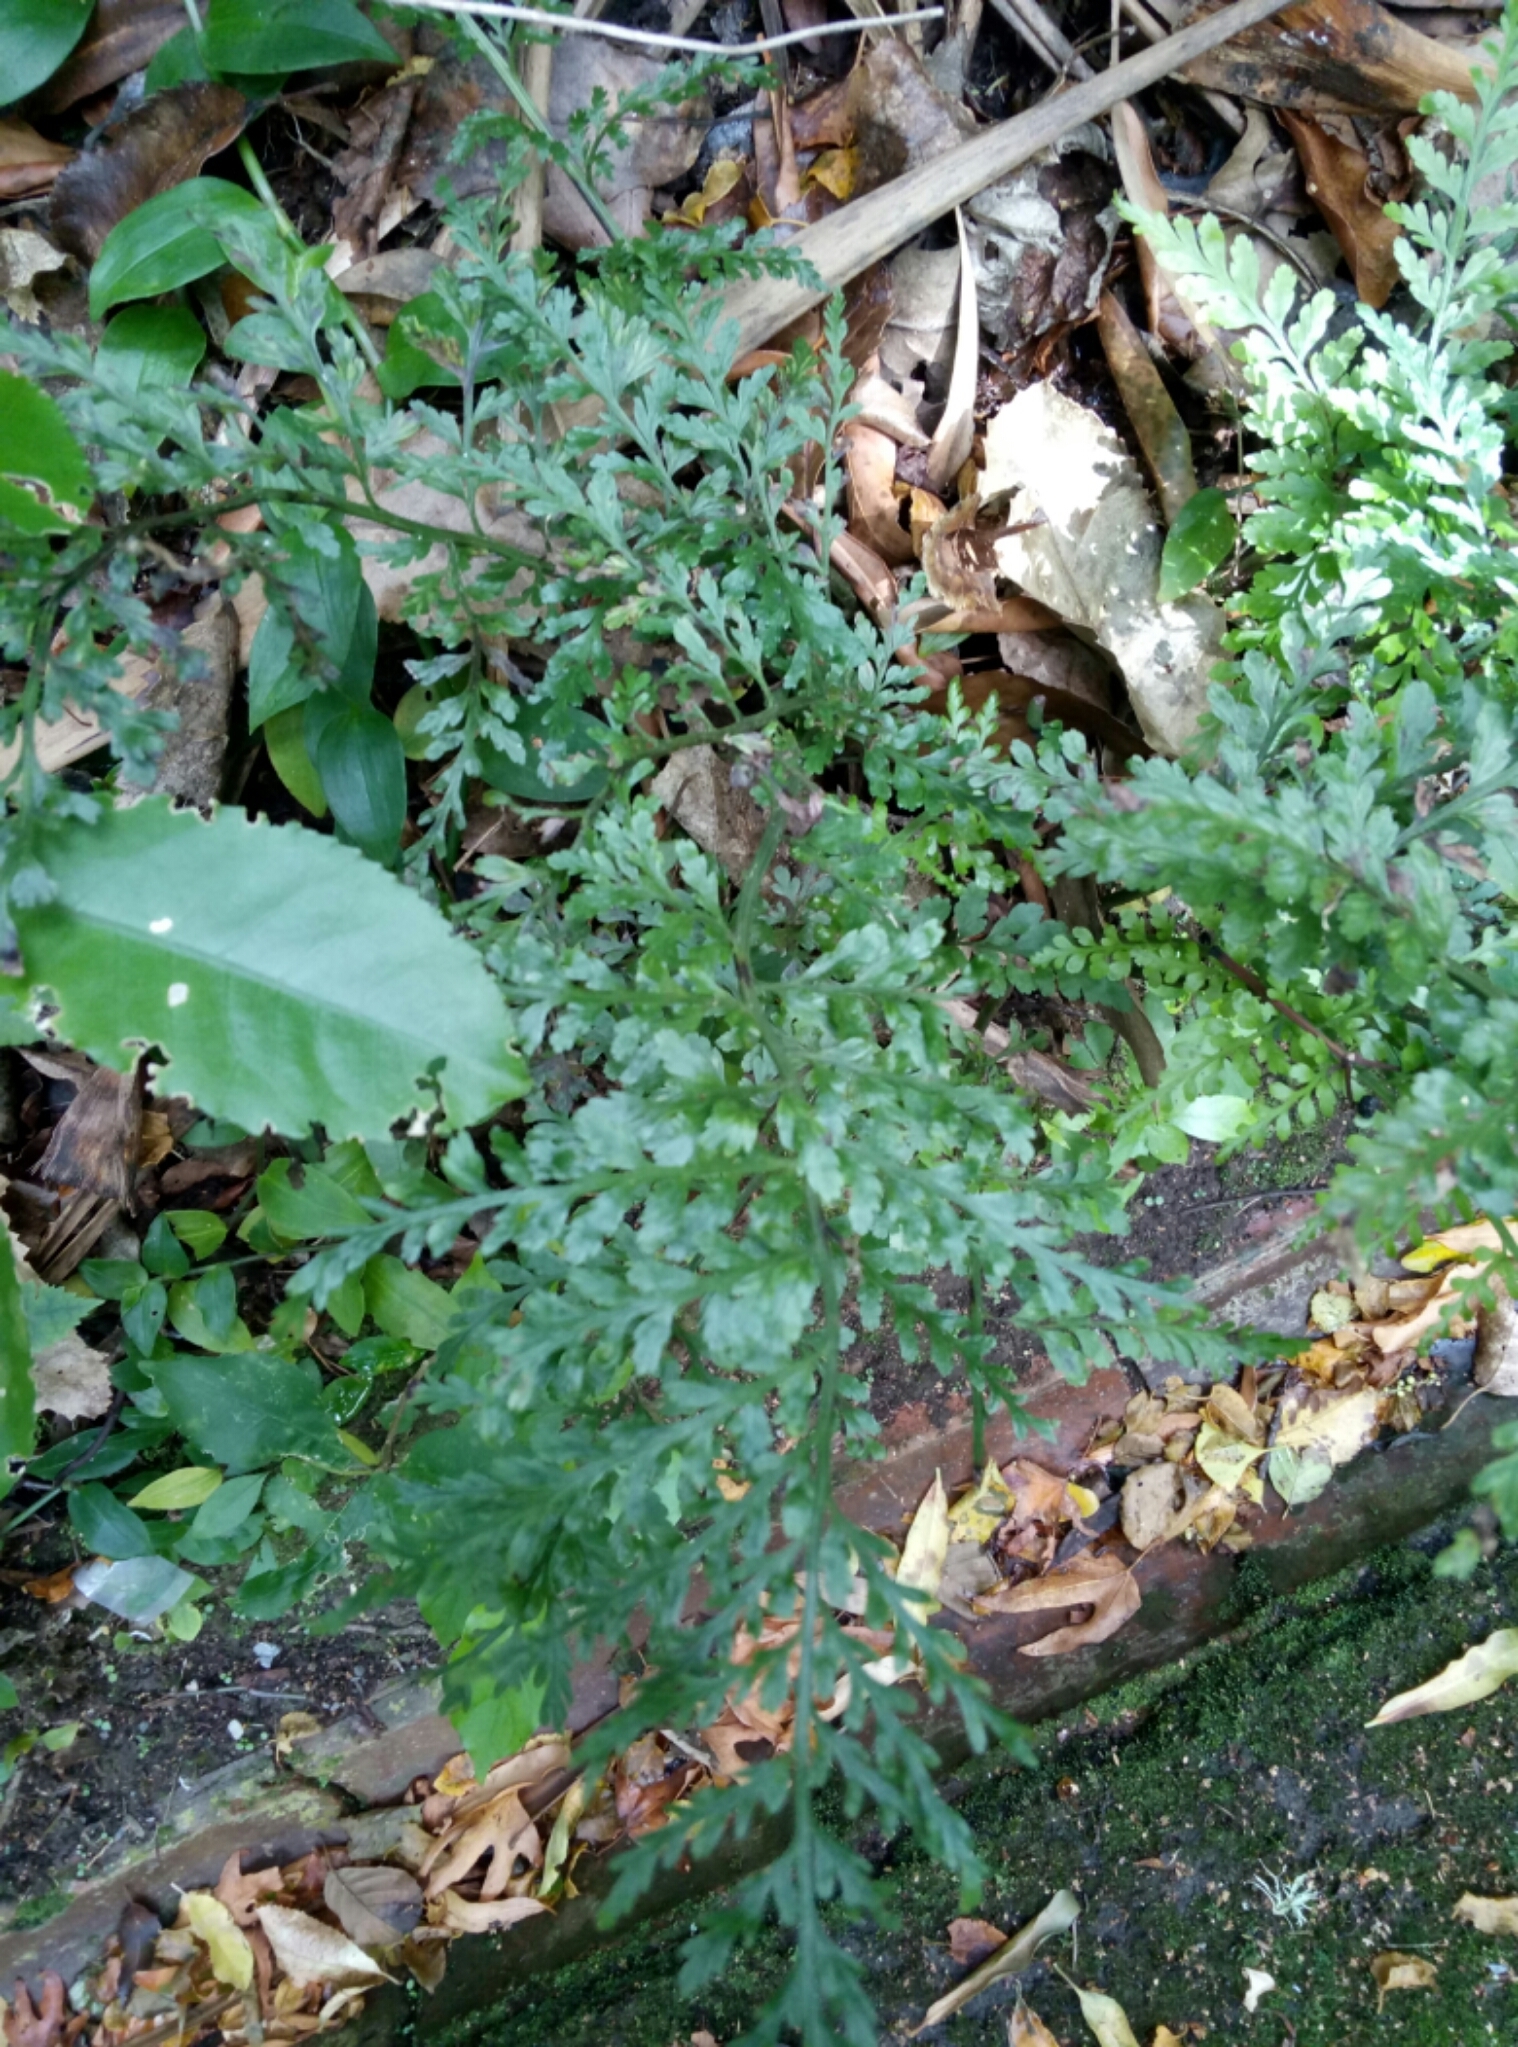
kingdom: Plantae
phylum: Tracheophyta
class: Polypodiopsida
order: Polypodiales
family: Aspleniaceae
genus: Asplenium
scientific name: Asplenium
